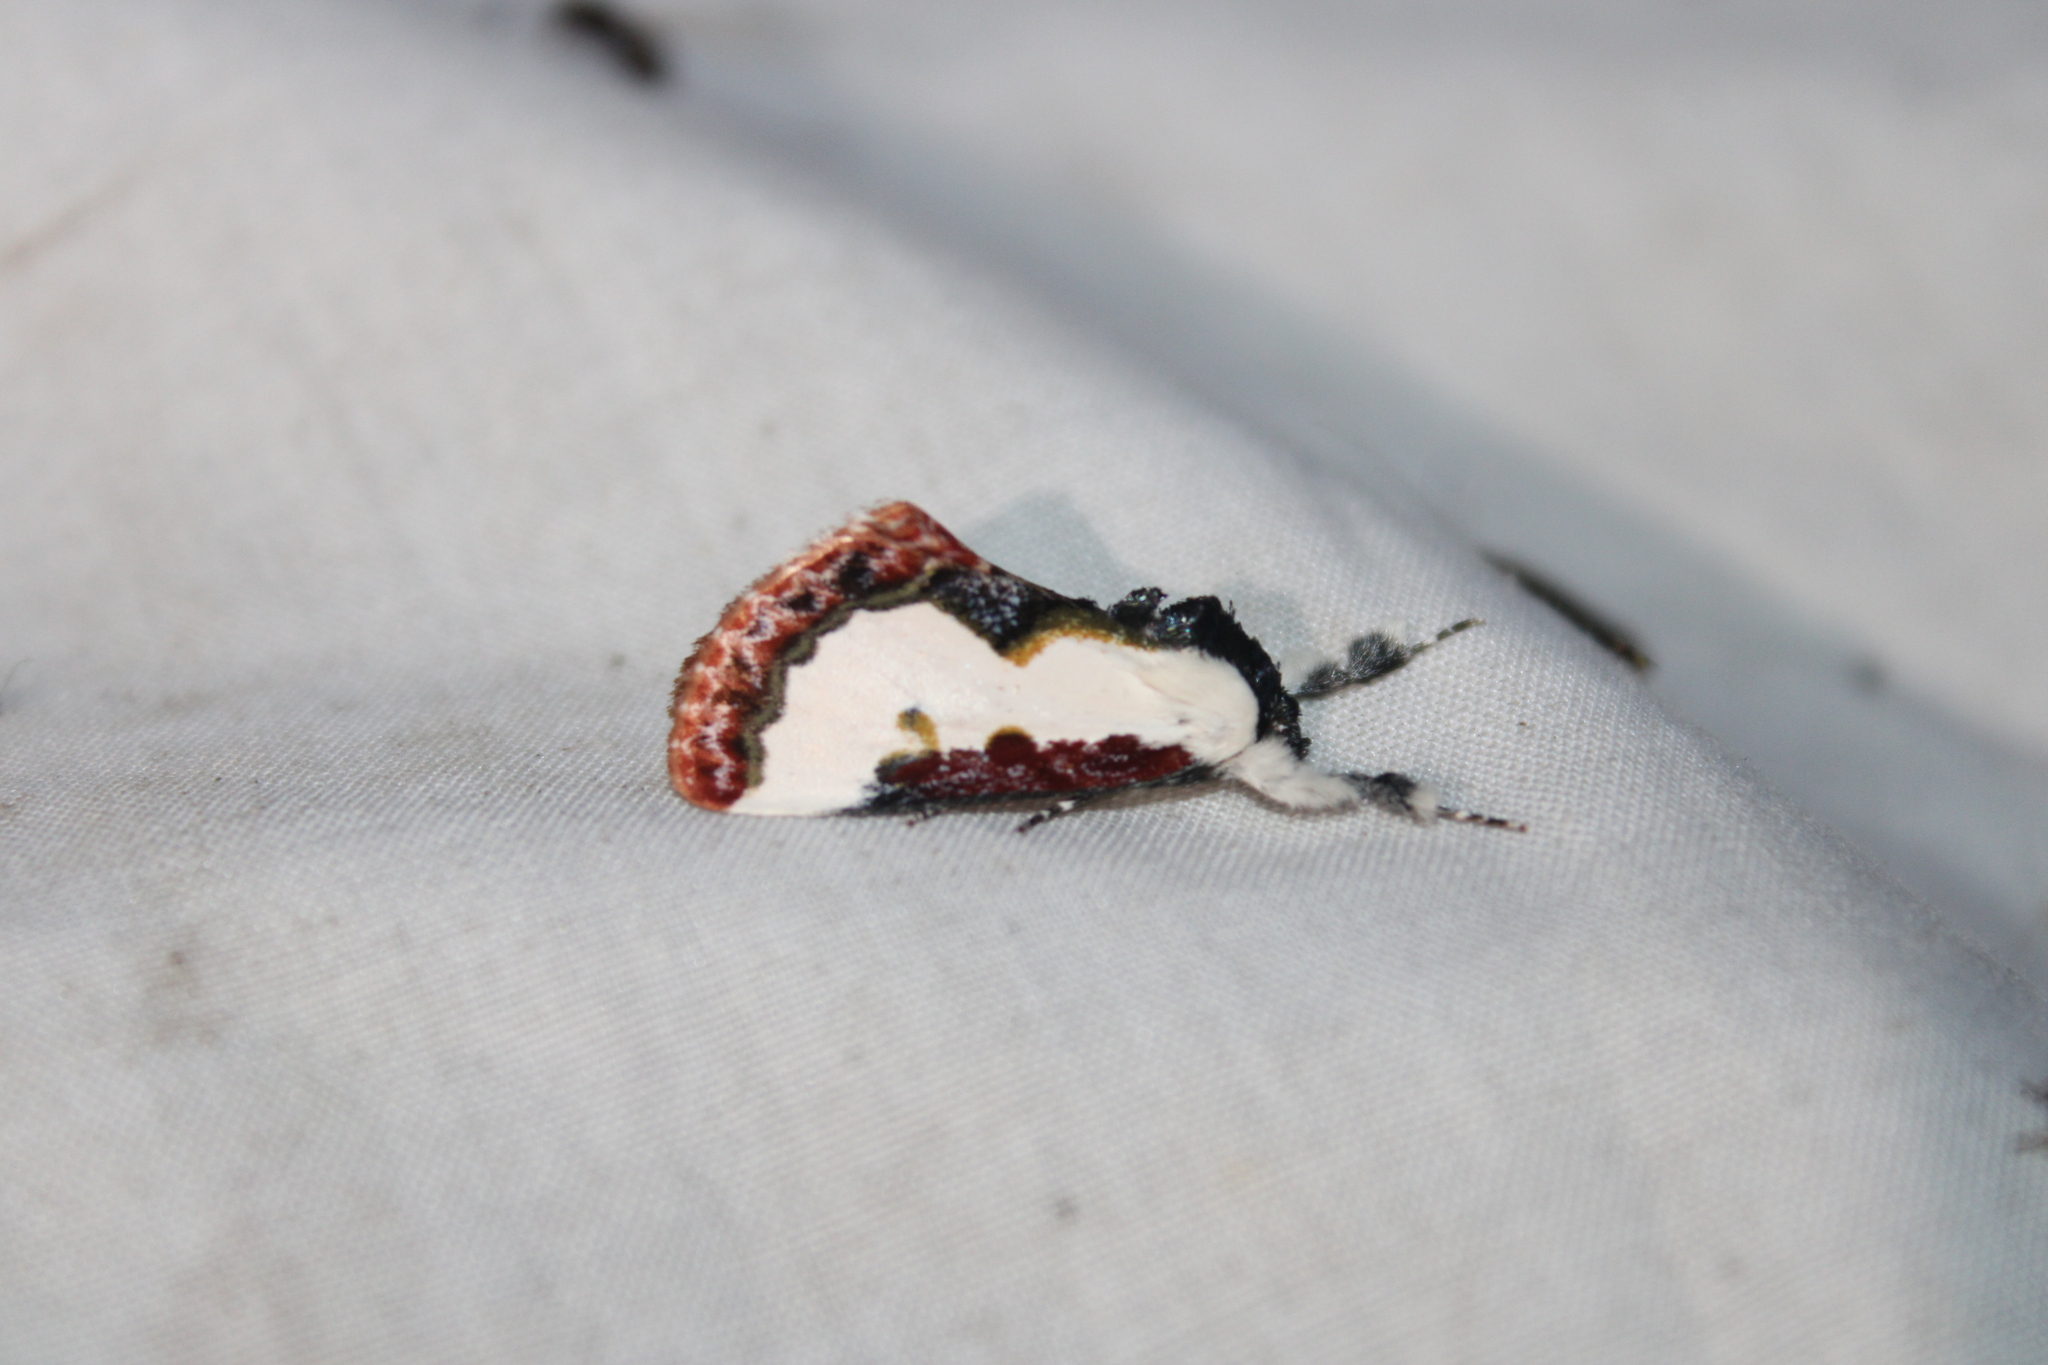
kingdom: Animalia
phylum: Arthropoda
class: Insecta
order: Lepidoptera
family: Noctuidae
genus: Eudryas
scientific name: Eudryas unio
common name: Pearly wood-nymph
